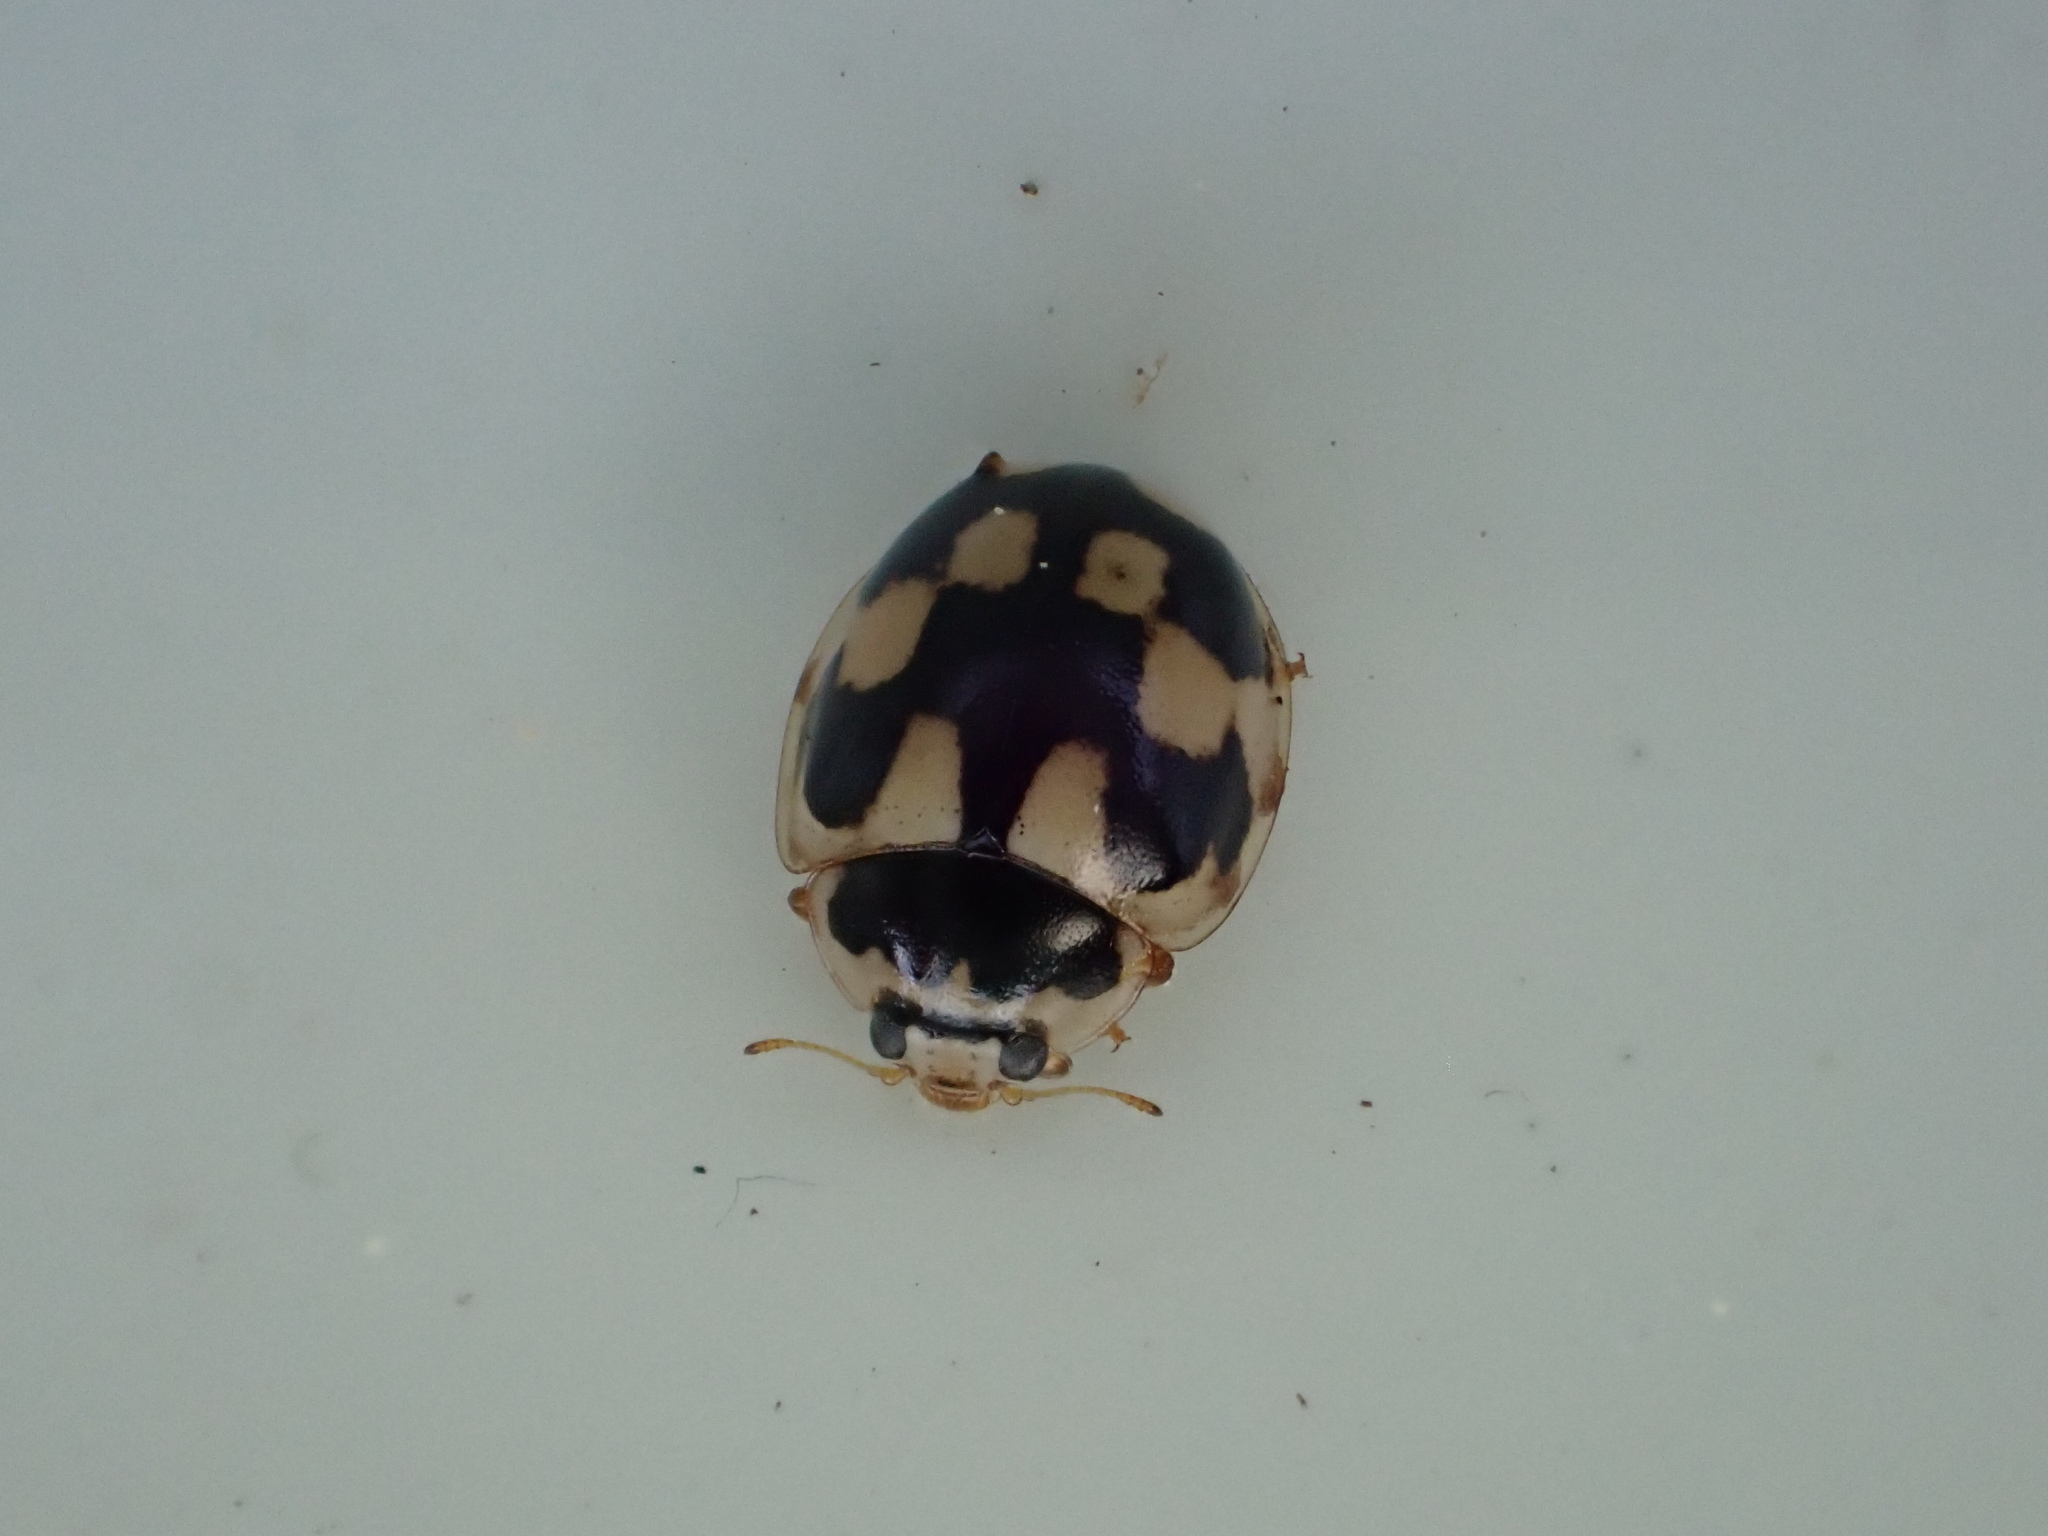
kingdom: Animalia
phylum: Arthropoda
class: Insecta
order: Coleoptera
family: Coccinellidae
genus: Propylaea
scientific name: Propylaea quatuordecimpunctata
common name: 14-spotted ladybird beetle
